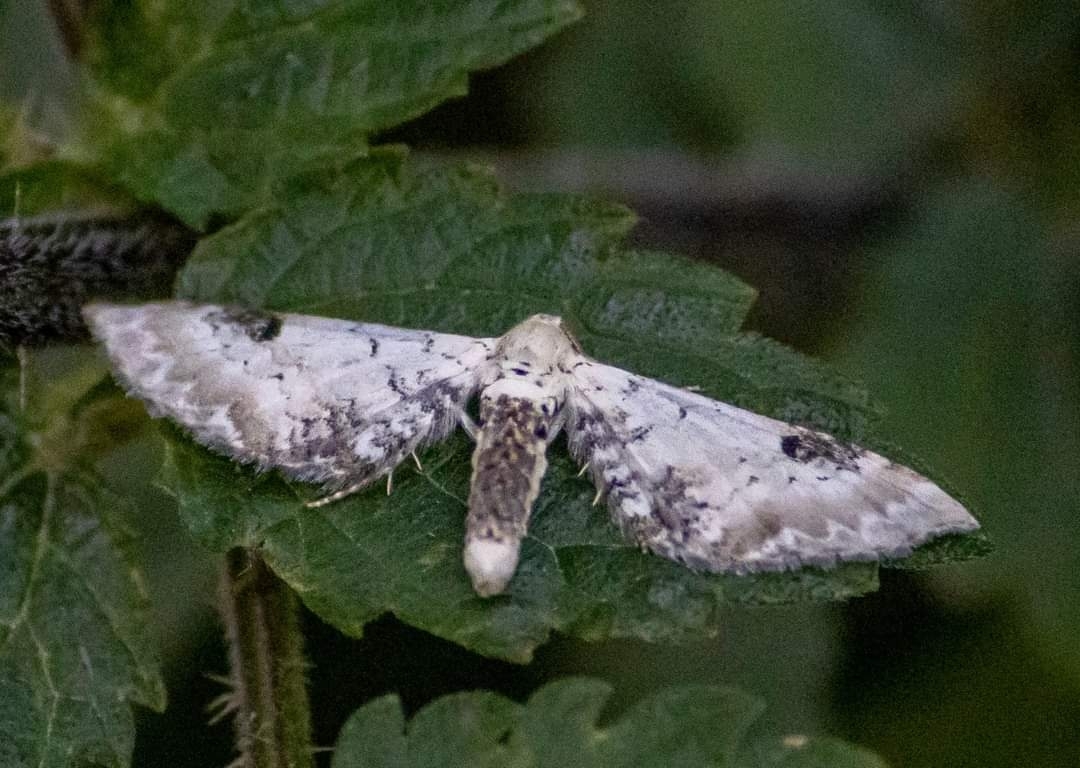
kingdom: Animalia
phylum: Arthropoda
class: Insecta
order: Lepidoptera
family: Geometridae
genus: Eupithecia
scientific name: Eupithecia centaureata
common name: Lime-speck pug
